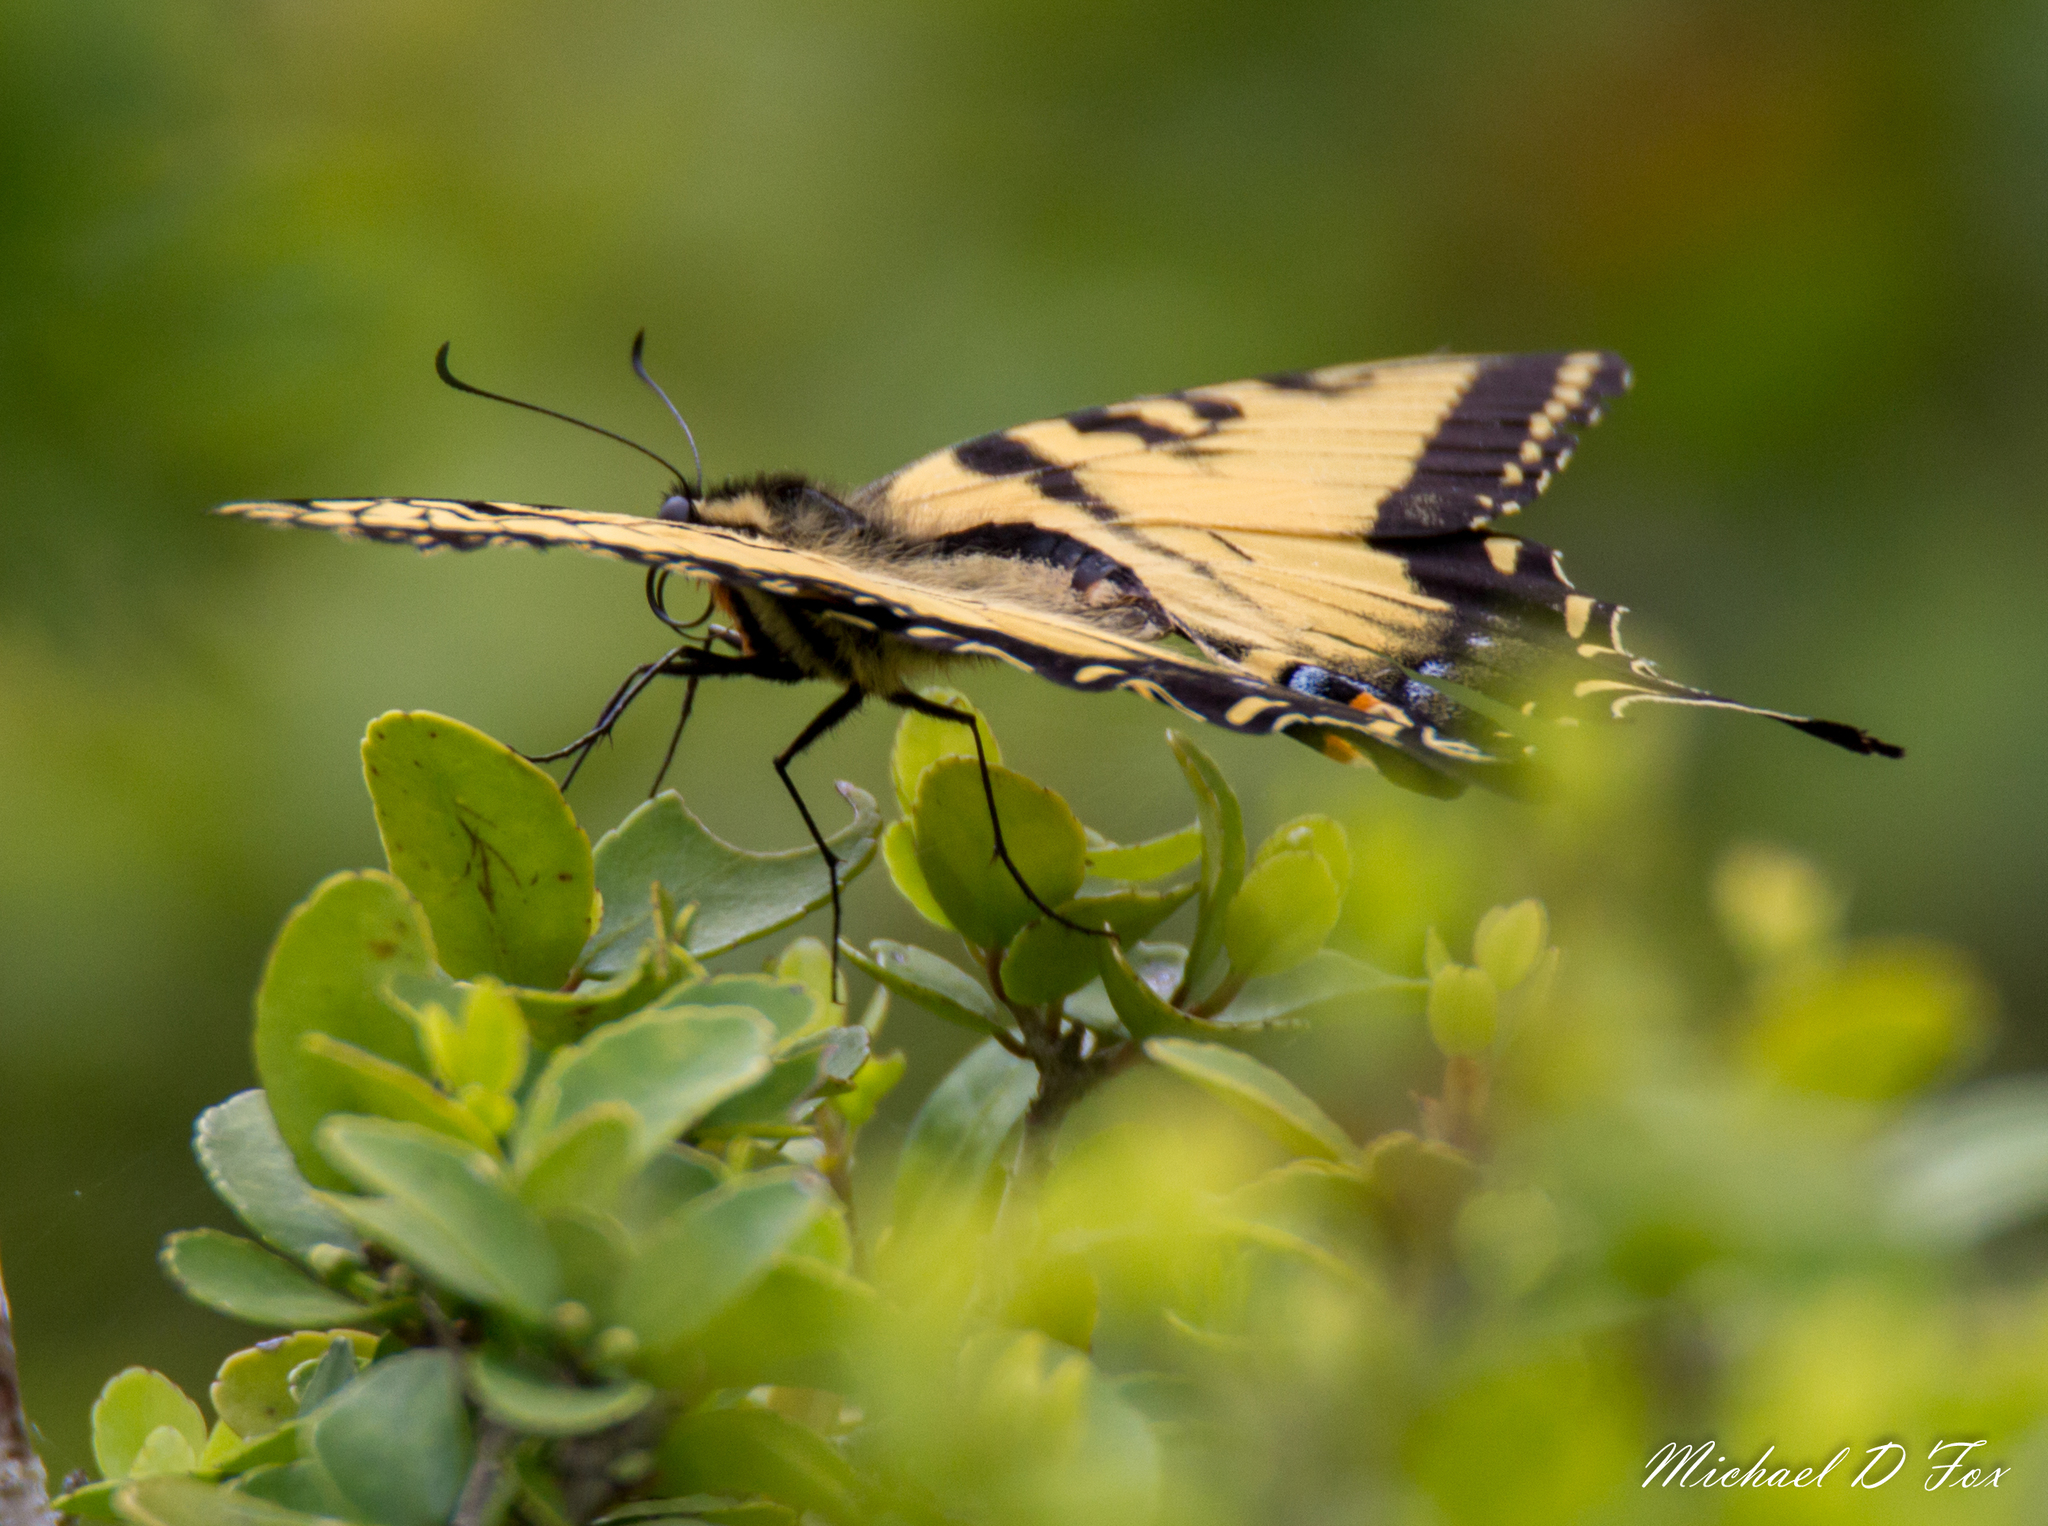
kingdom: Animalia
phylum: Arthropoda
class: Insecta
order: Lepidoptera
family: Papilionidae
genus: Papilio
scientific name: Papilio glaucus
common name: Tiger swallowtail
